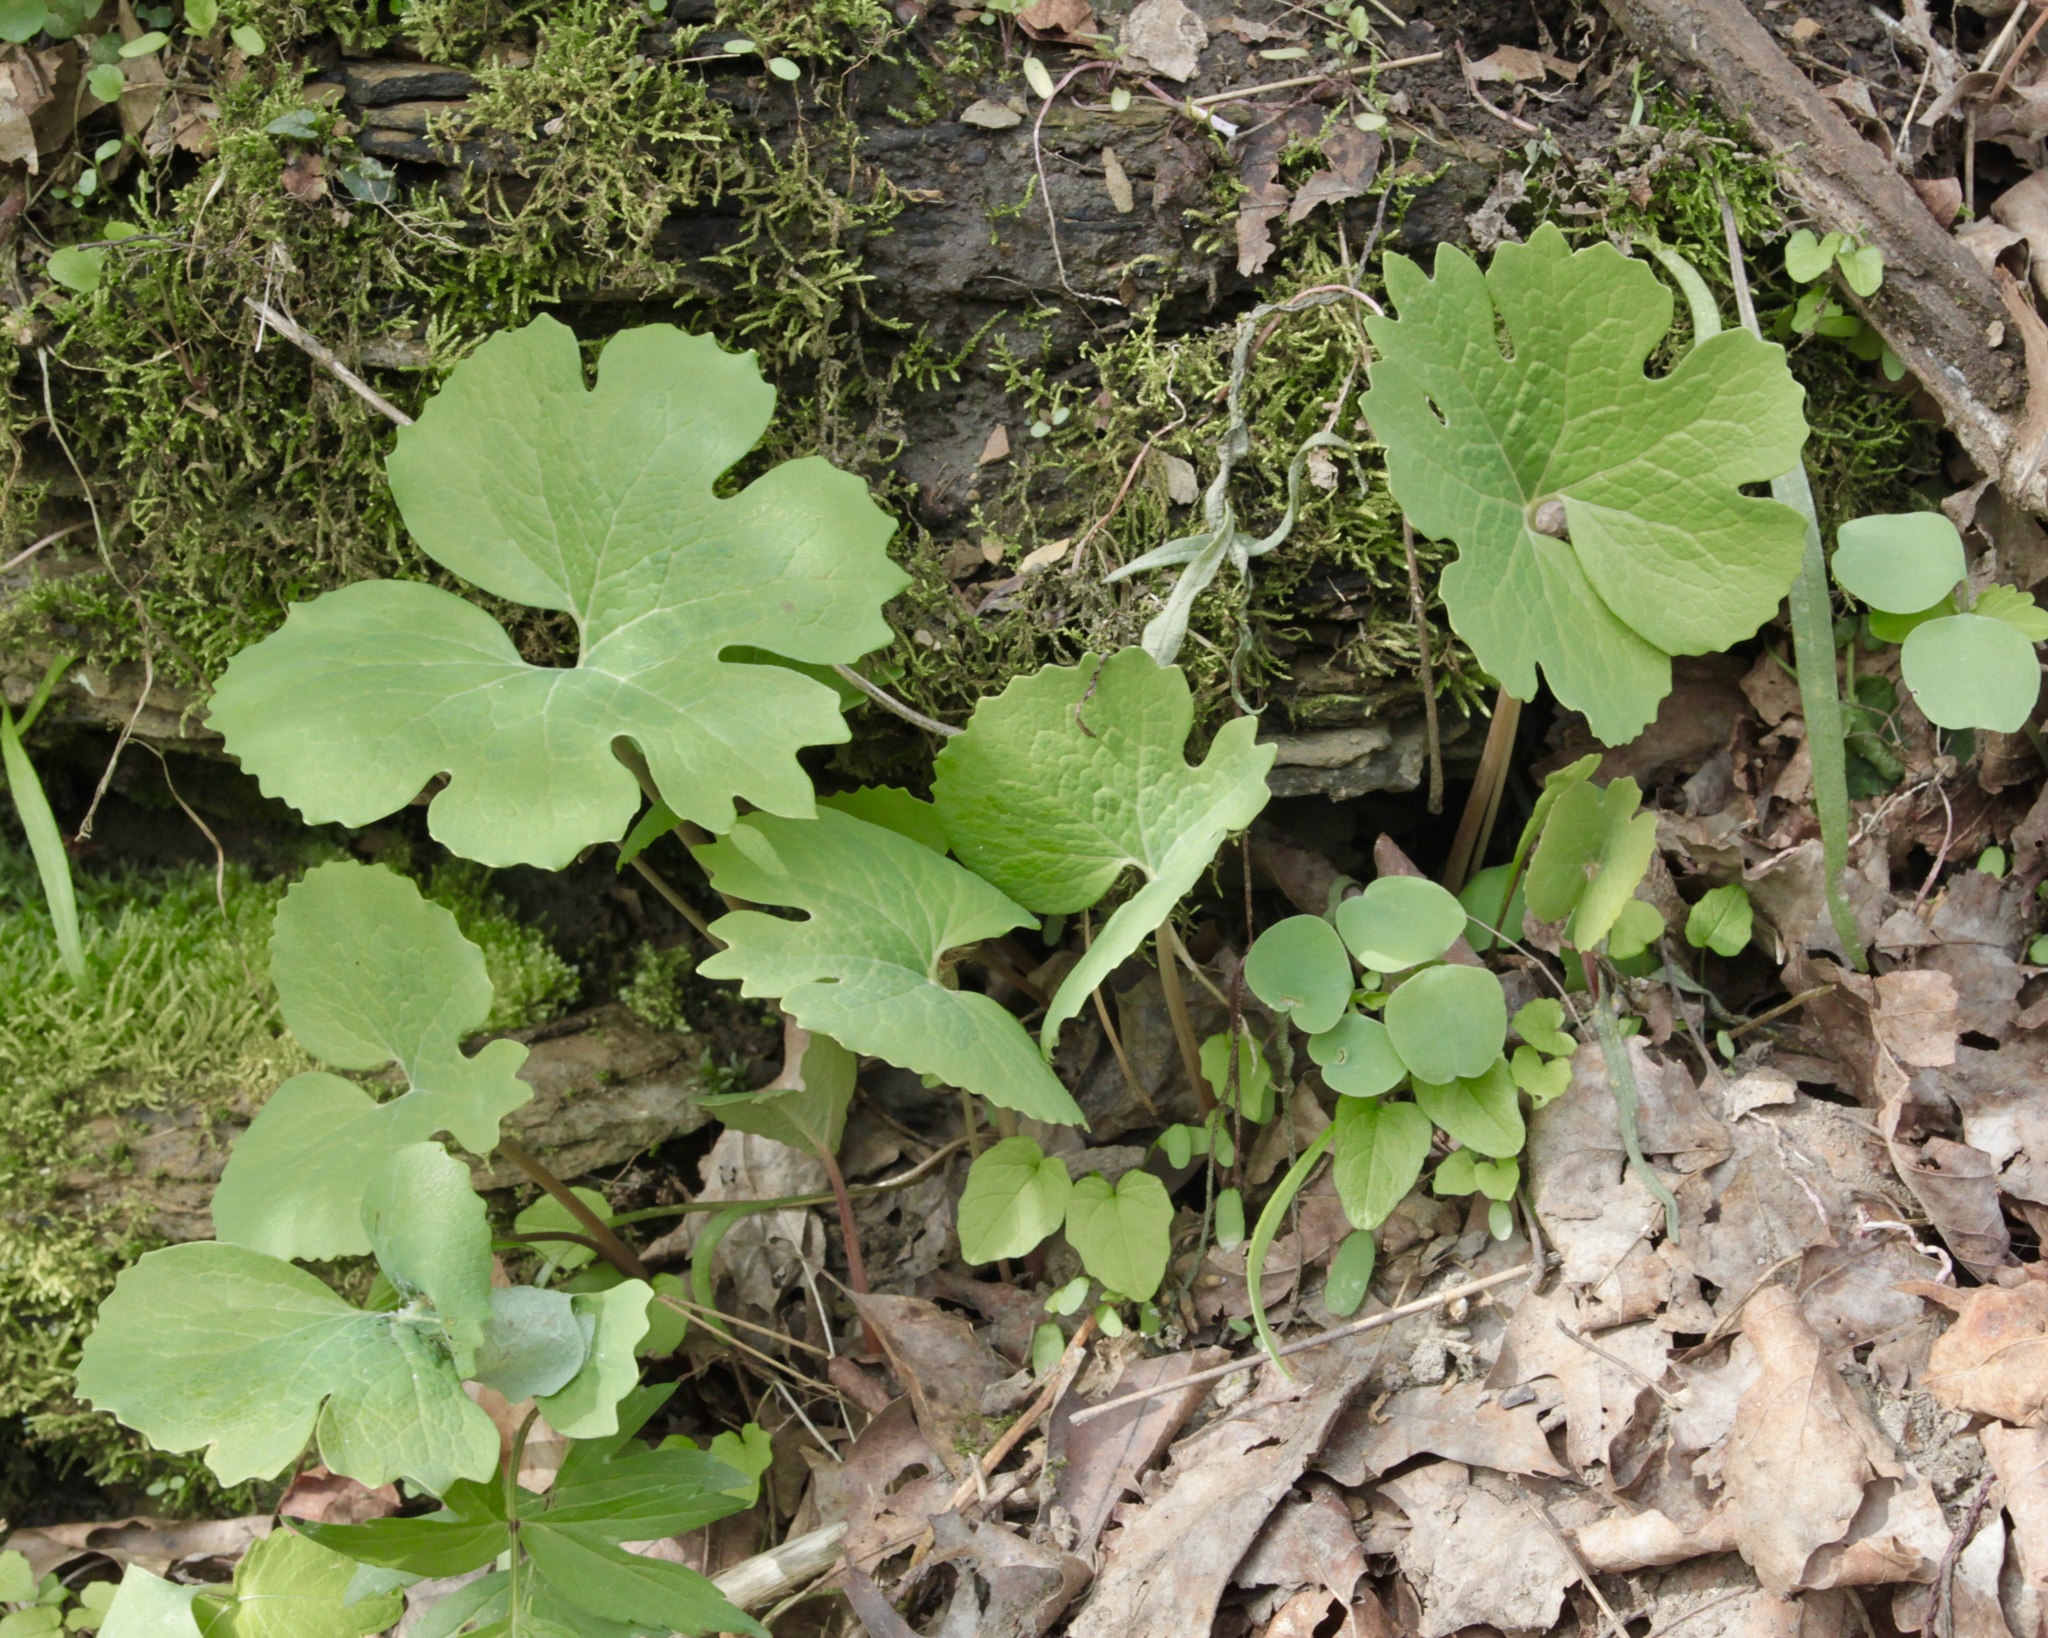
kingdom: Plantae
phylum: Tracheophyta
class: Magnoliopsida
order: Ranunculales
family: Papaveraceae
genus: Sanguinaria
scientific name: Sanguinaria canadensis
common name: Bloodroot
